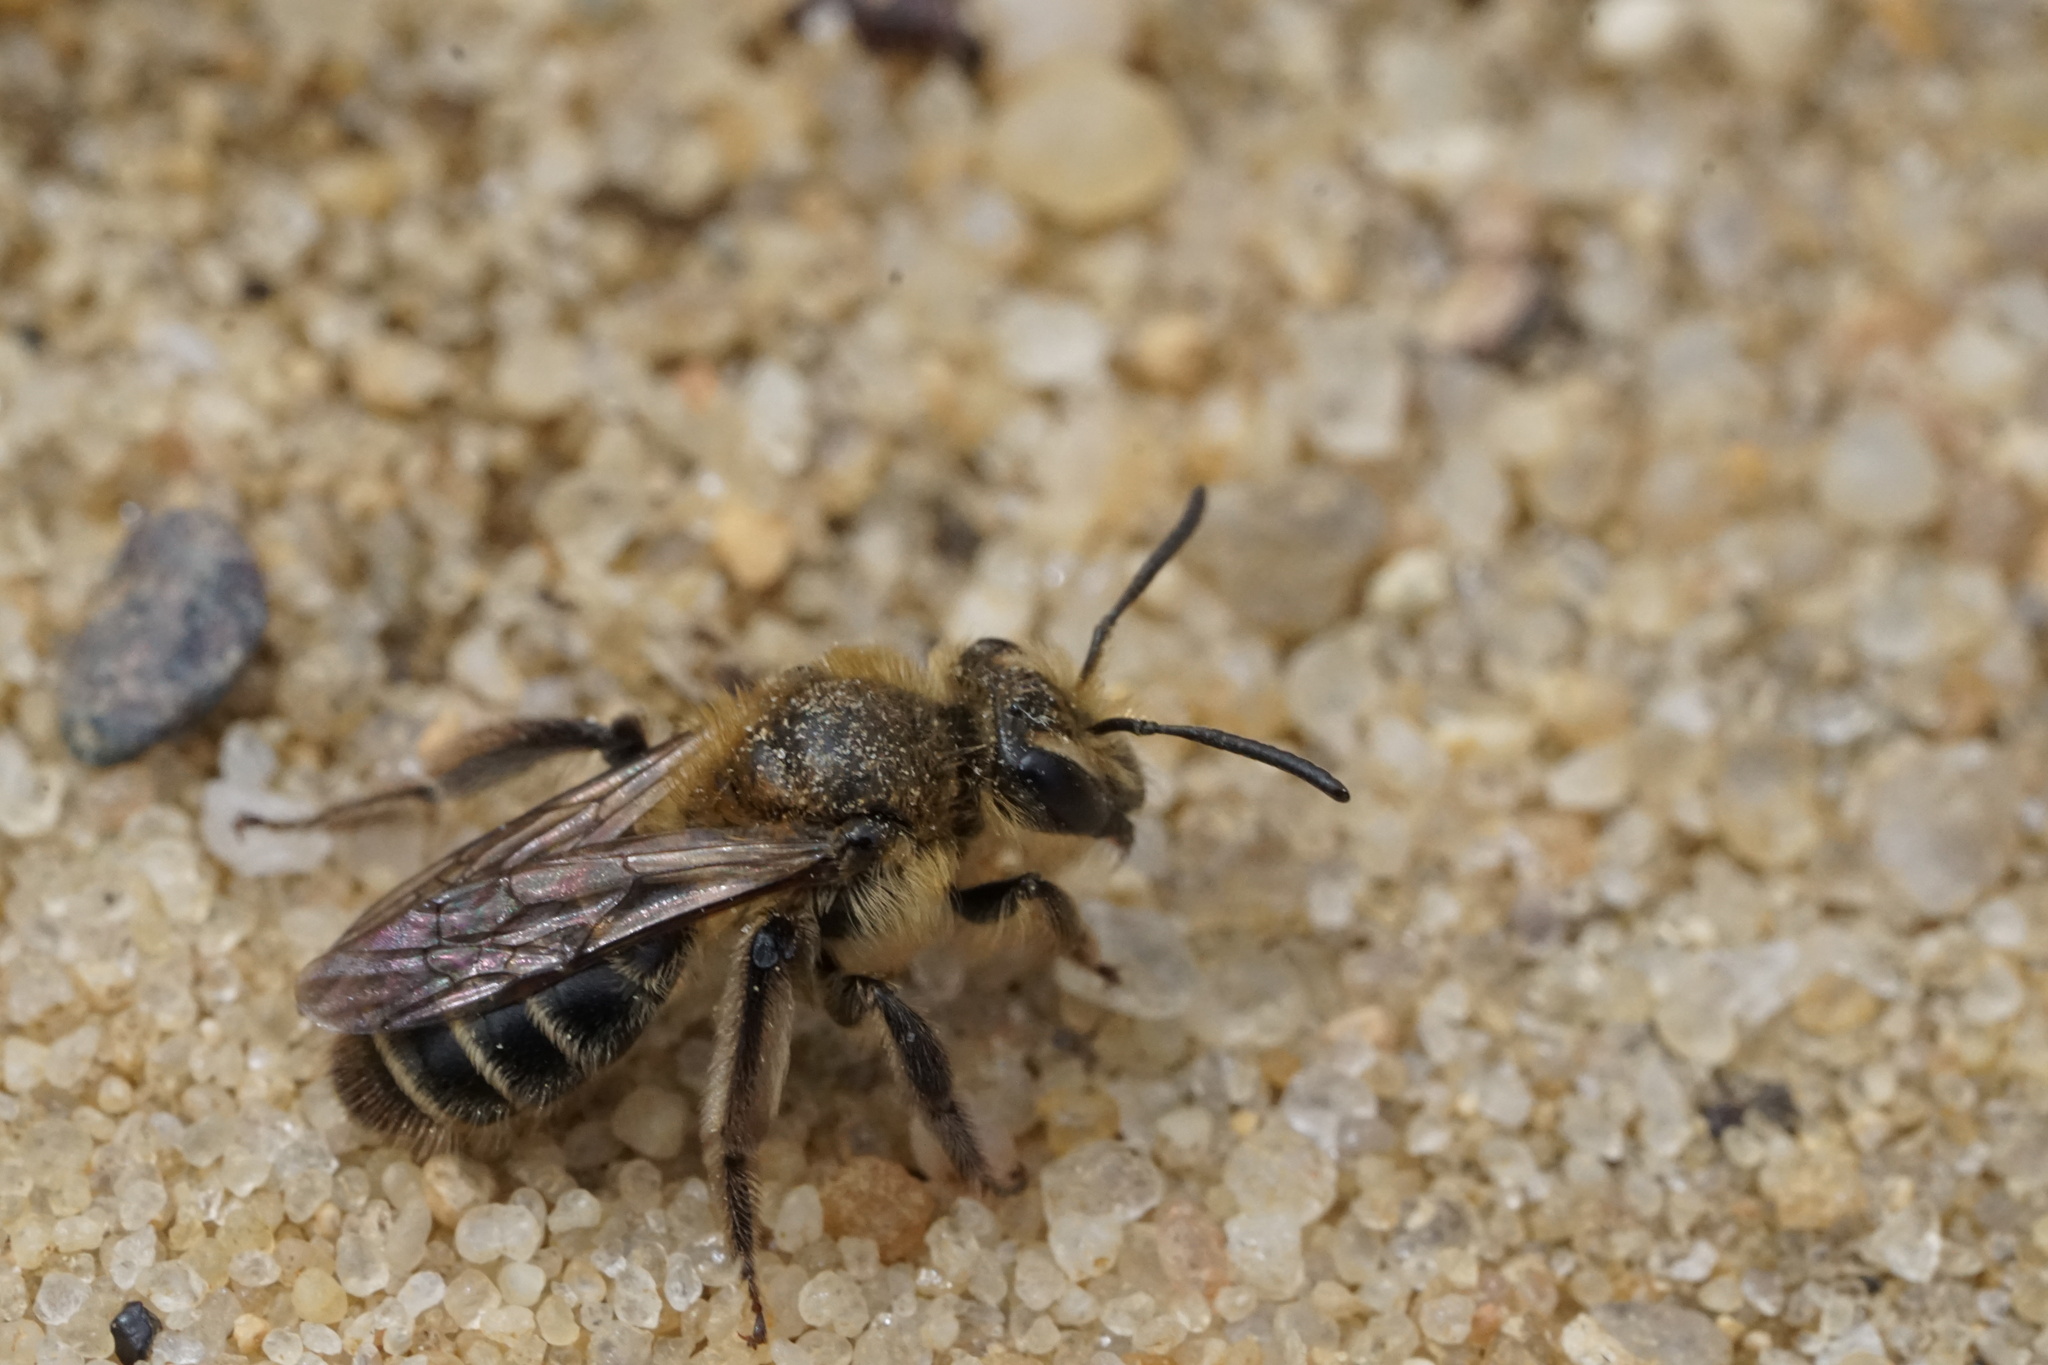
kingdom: Animalia
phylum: Arthropoda
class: Insecta
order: Hymenoptera
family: Andrenidae
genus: Andrena
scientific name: Andrena bradleyi
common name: Bradley's mining bee
